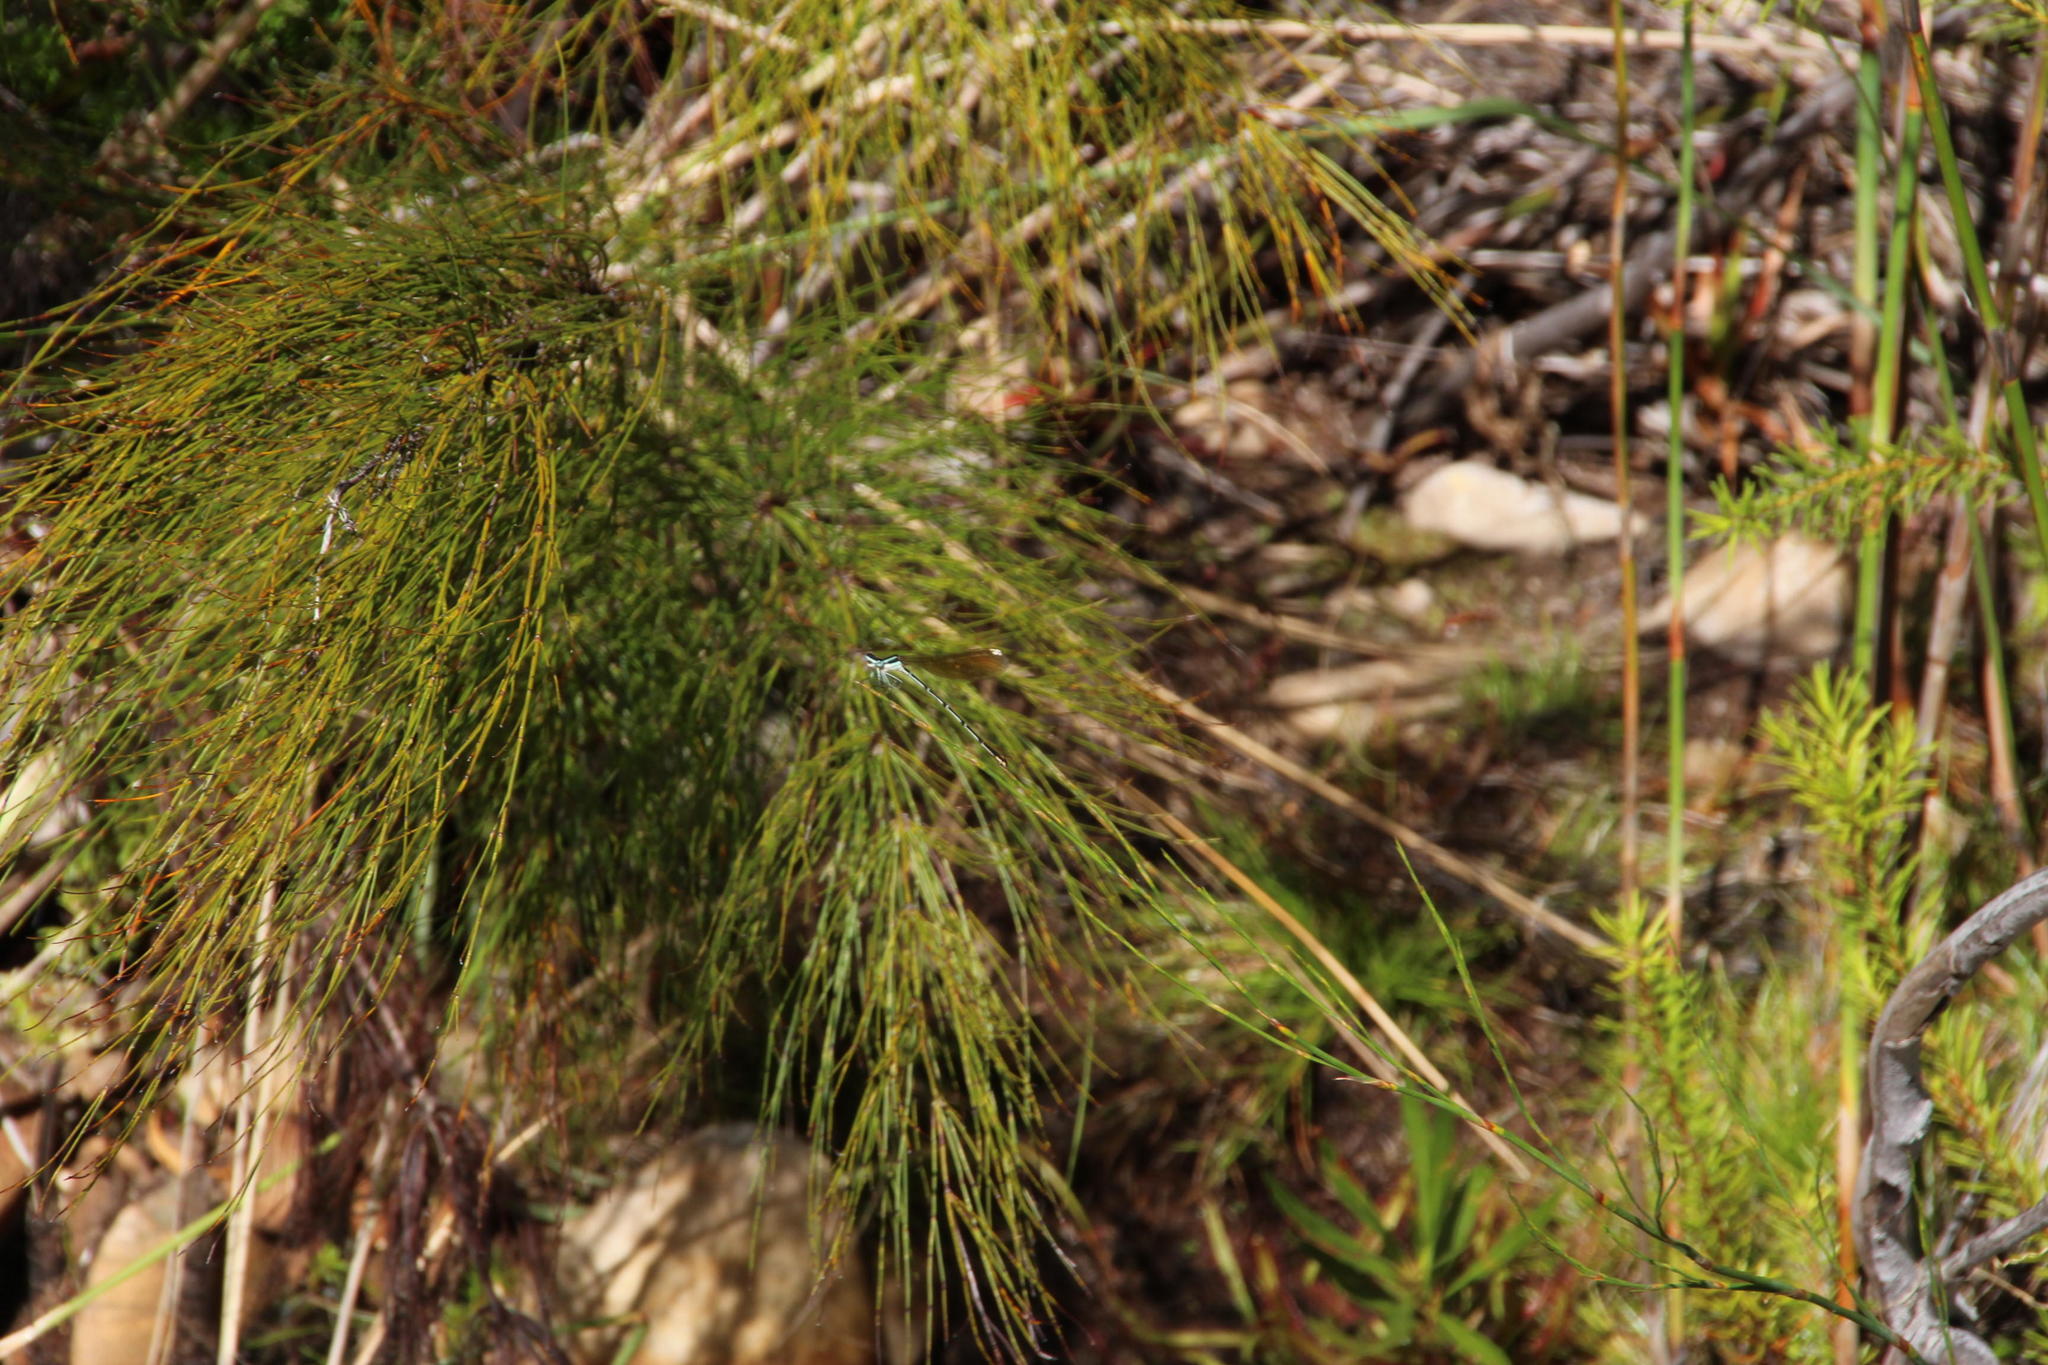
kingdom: Plantae
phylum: Tracheophyta
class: Liliopsida
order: Poales
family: Restionaceae
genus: Elegia
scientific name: Elegia capensis
